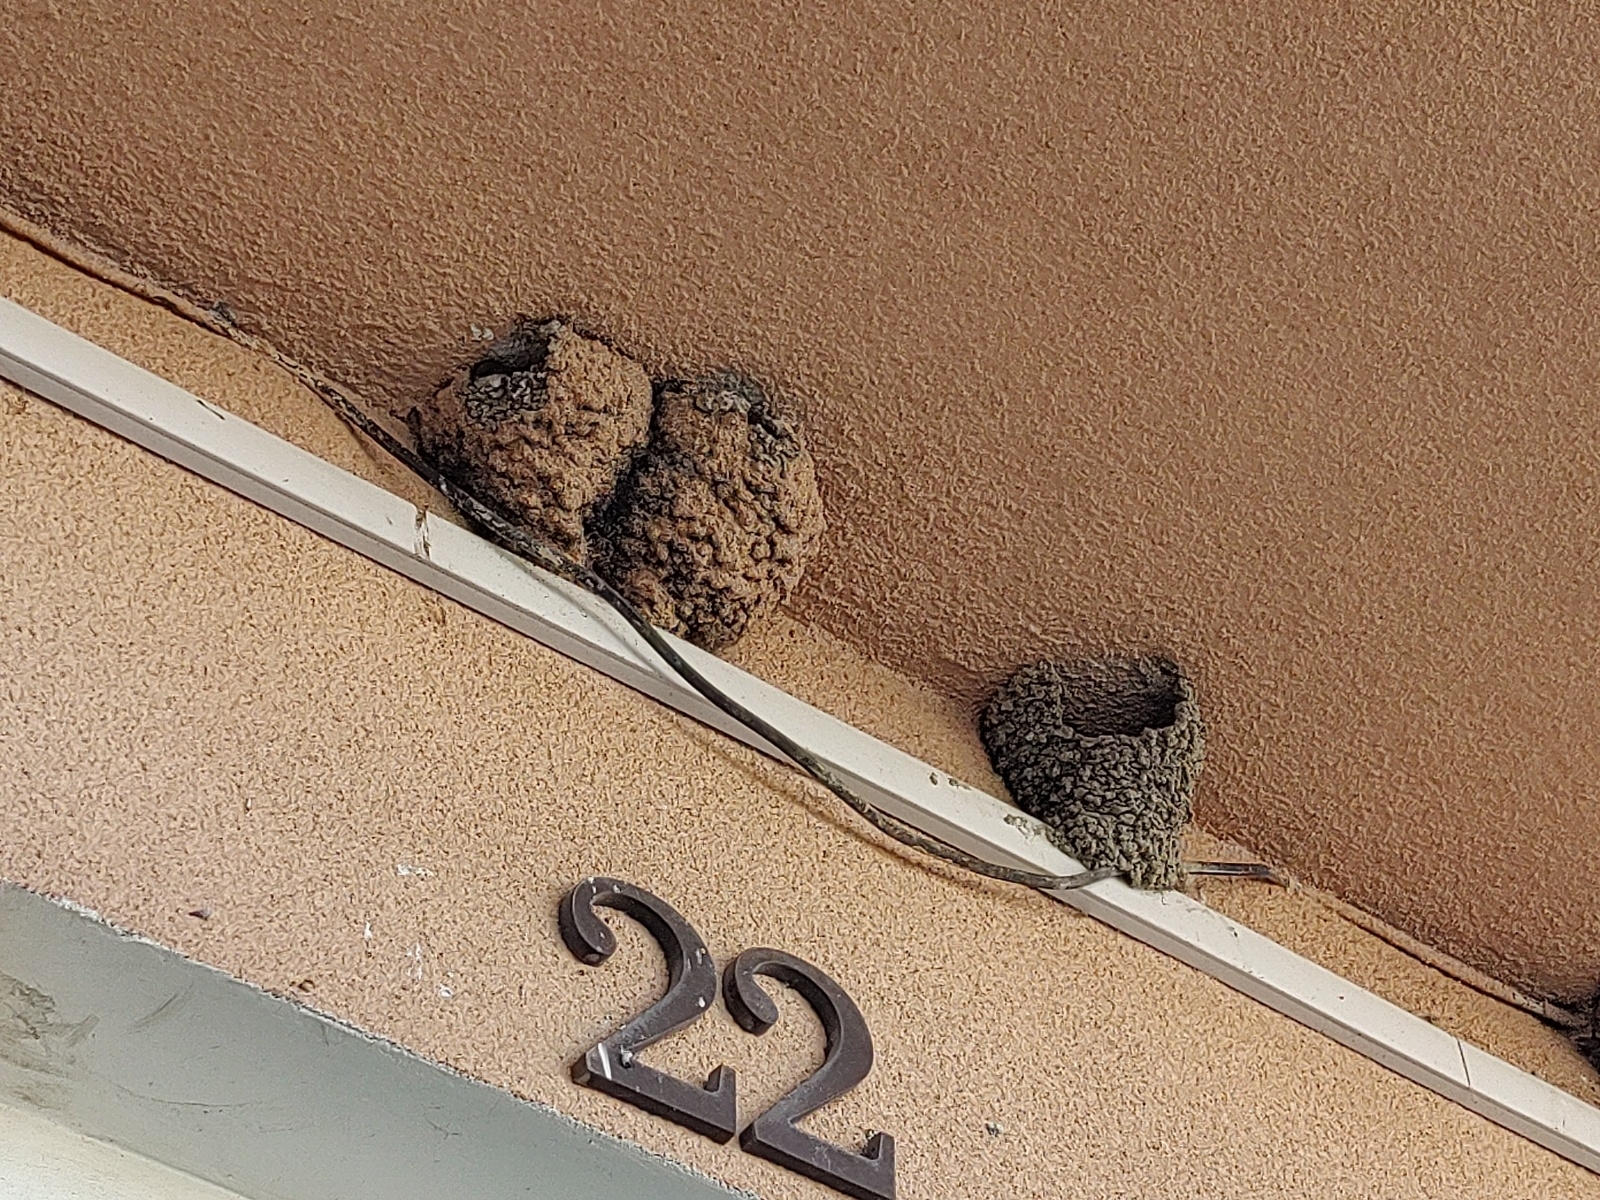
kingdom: Animalia
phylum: Chordata
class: Aves
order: Passeriformes
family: Hirundinidae
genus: Delichon
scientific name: Delichon urbicum
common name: Common house martin
